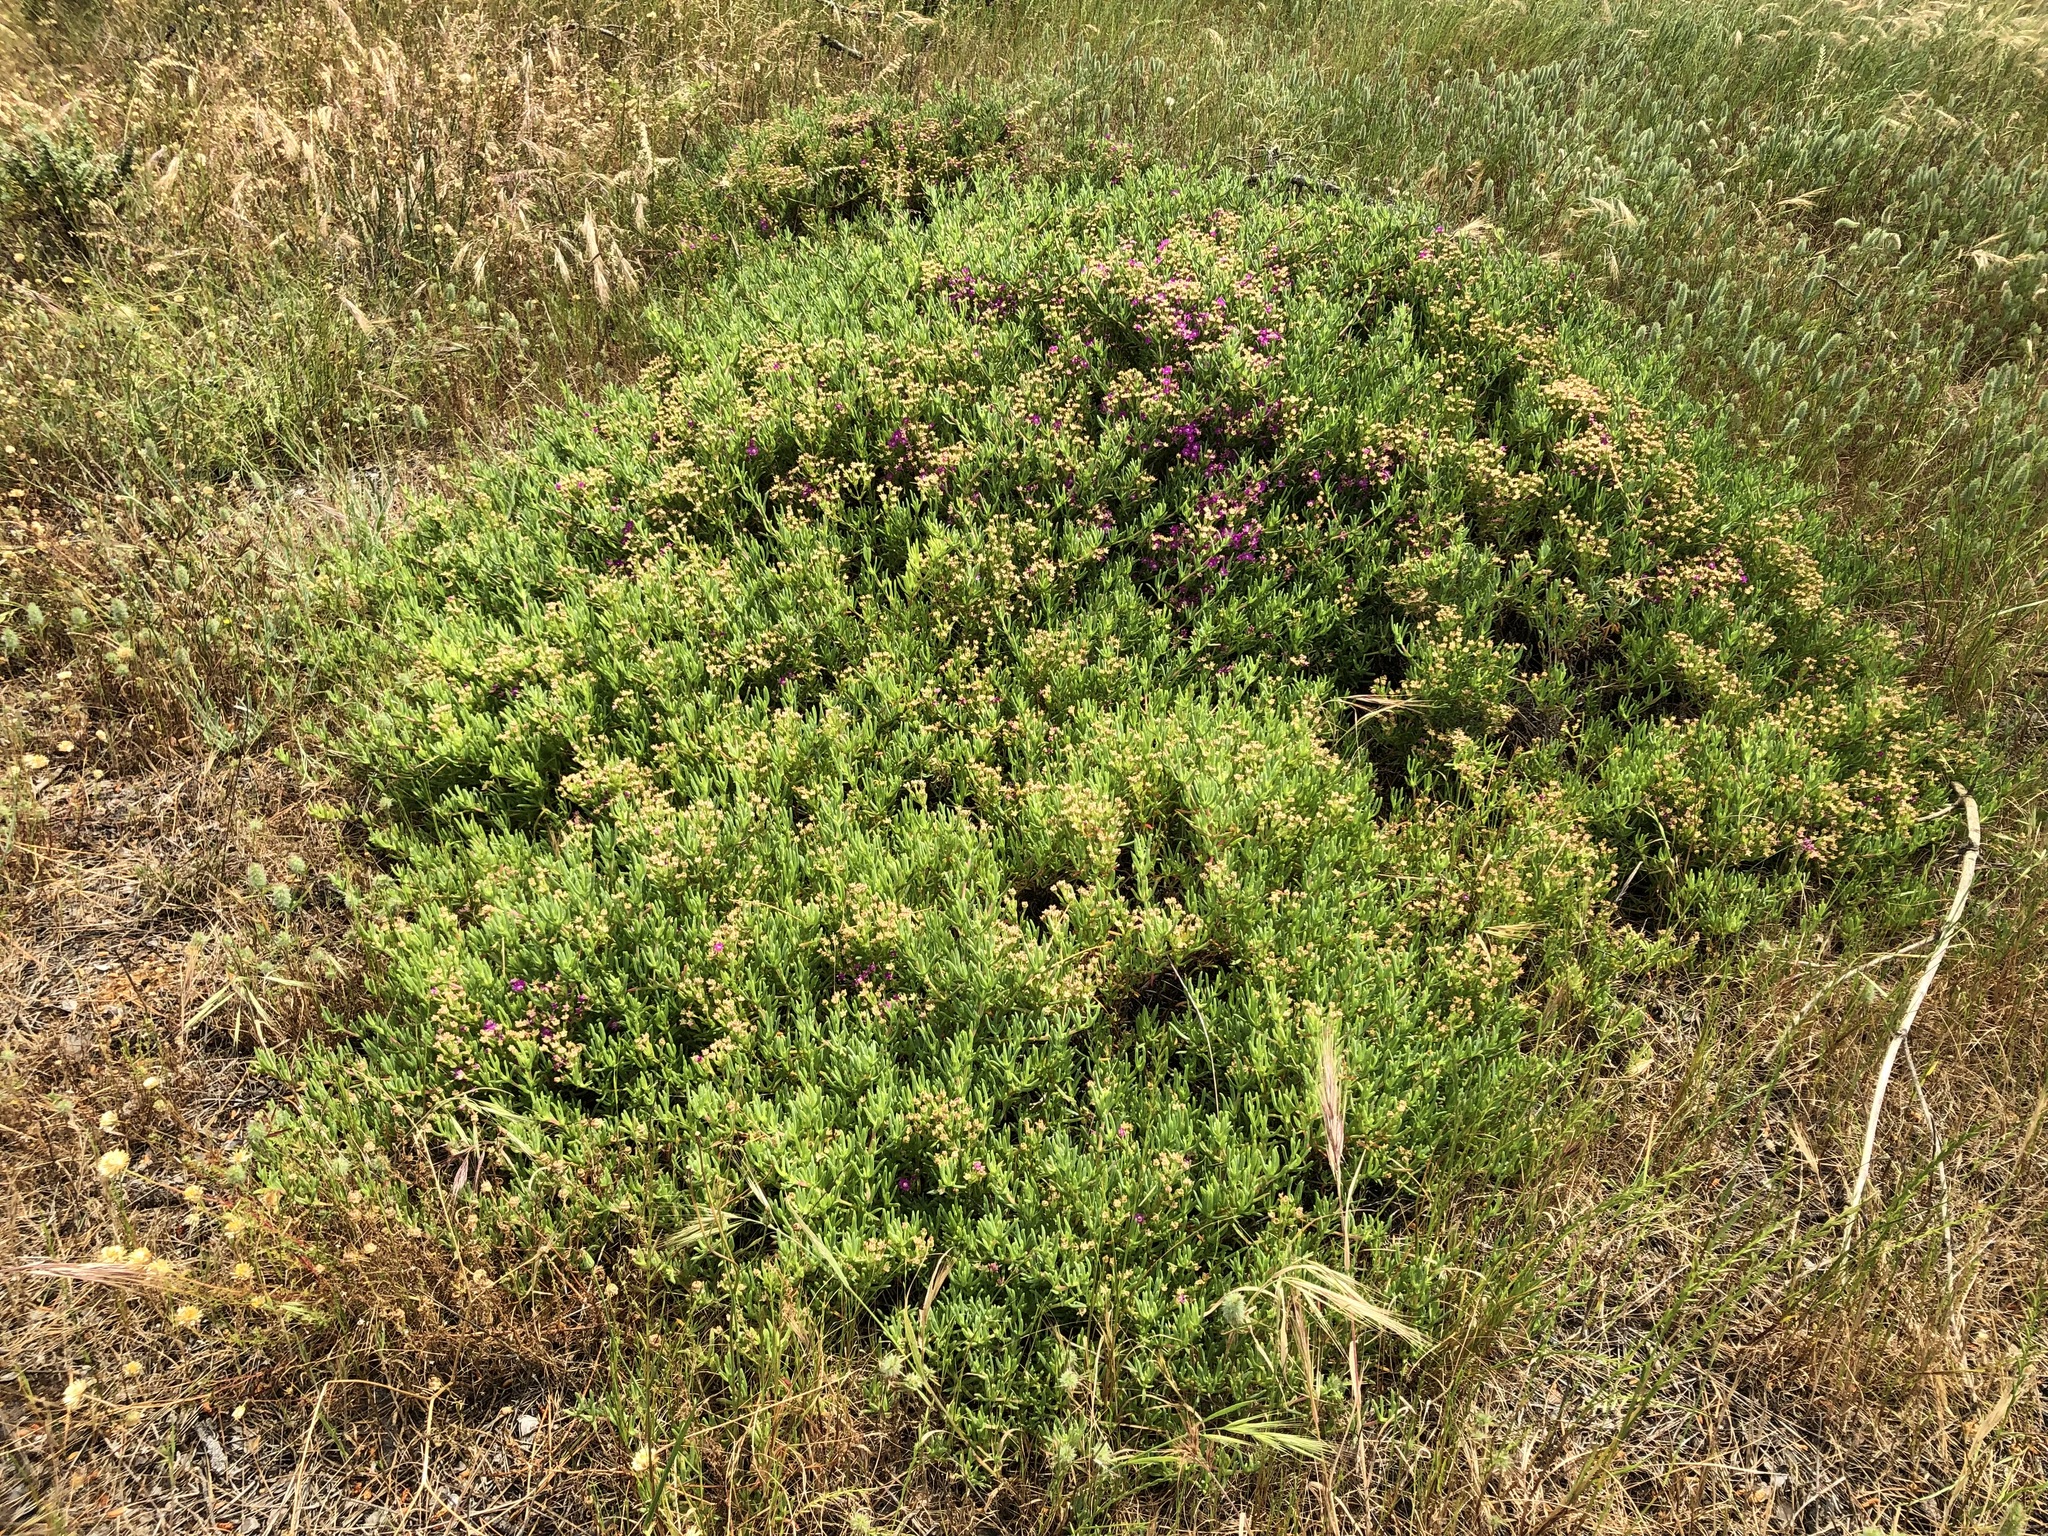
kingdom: Plantae
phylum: Tracheophyta
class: Magnoliopsida
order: Caryophyllales
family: Aizoaceae
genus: Ruschia
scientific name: Ruschia macowanii
